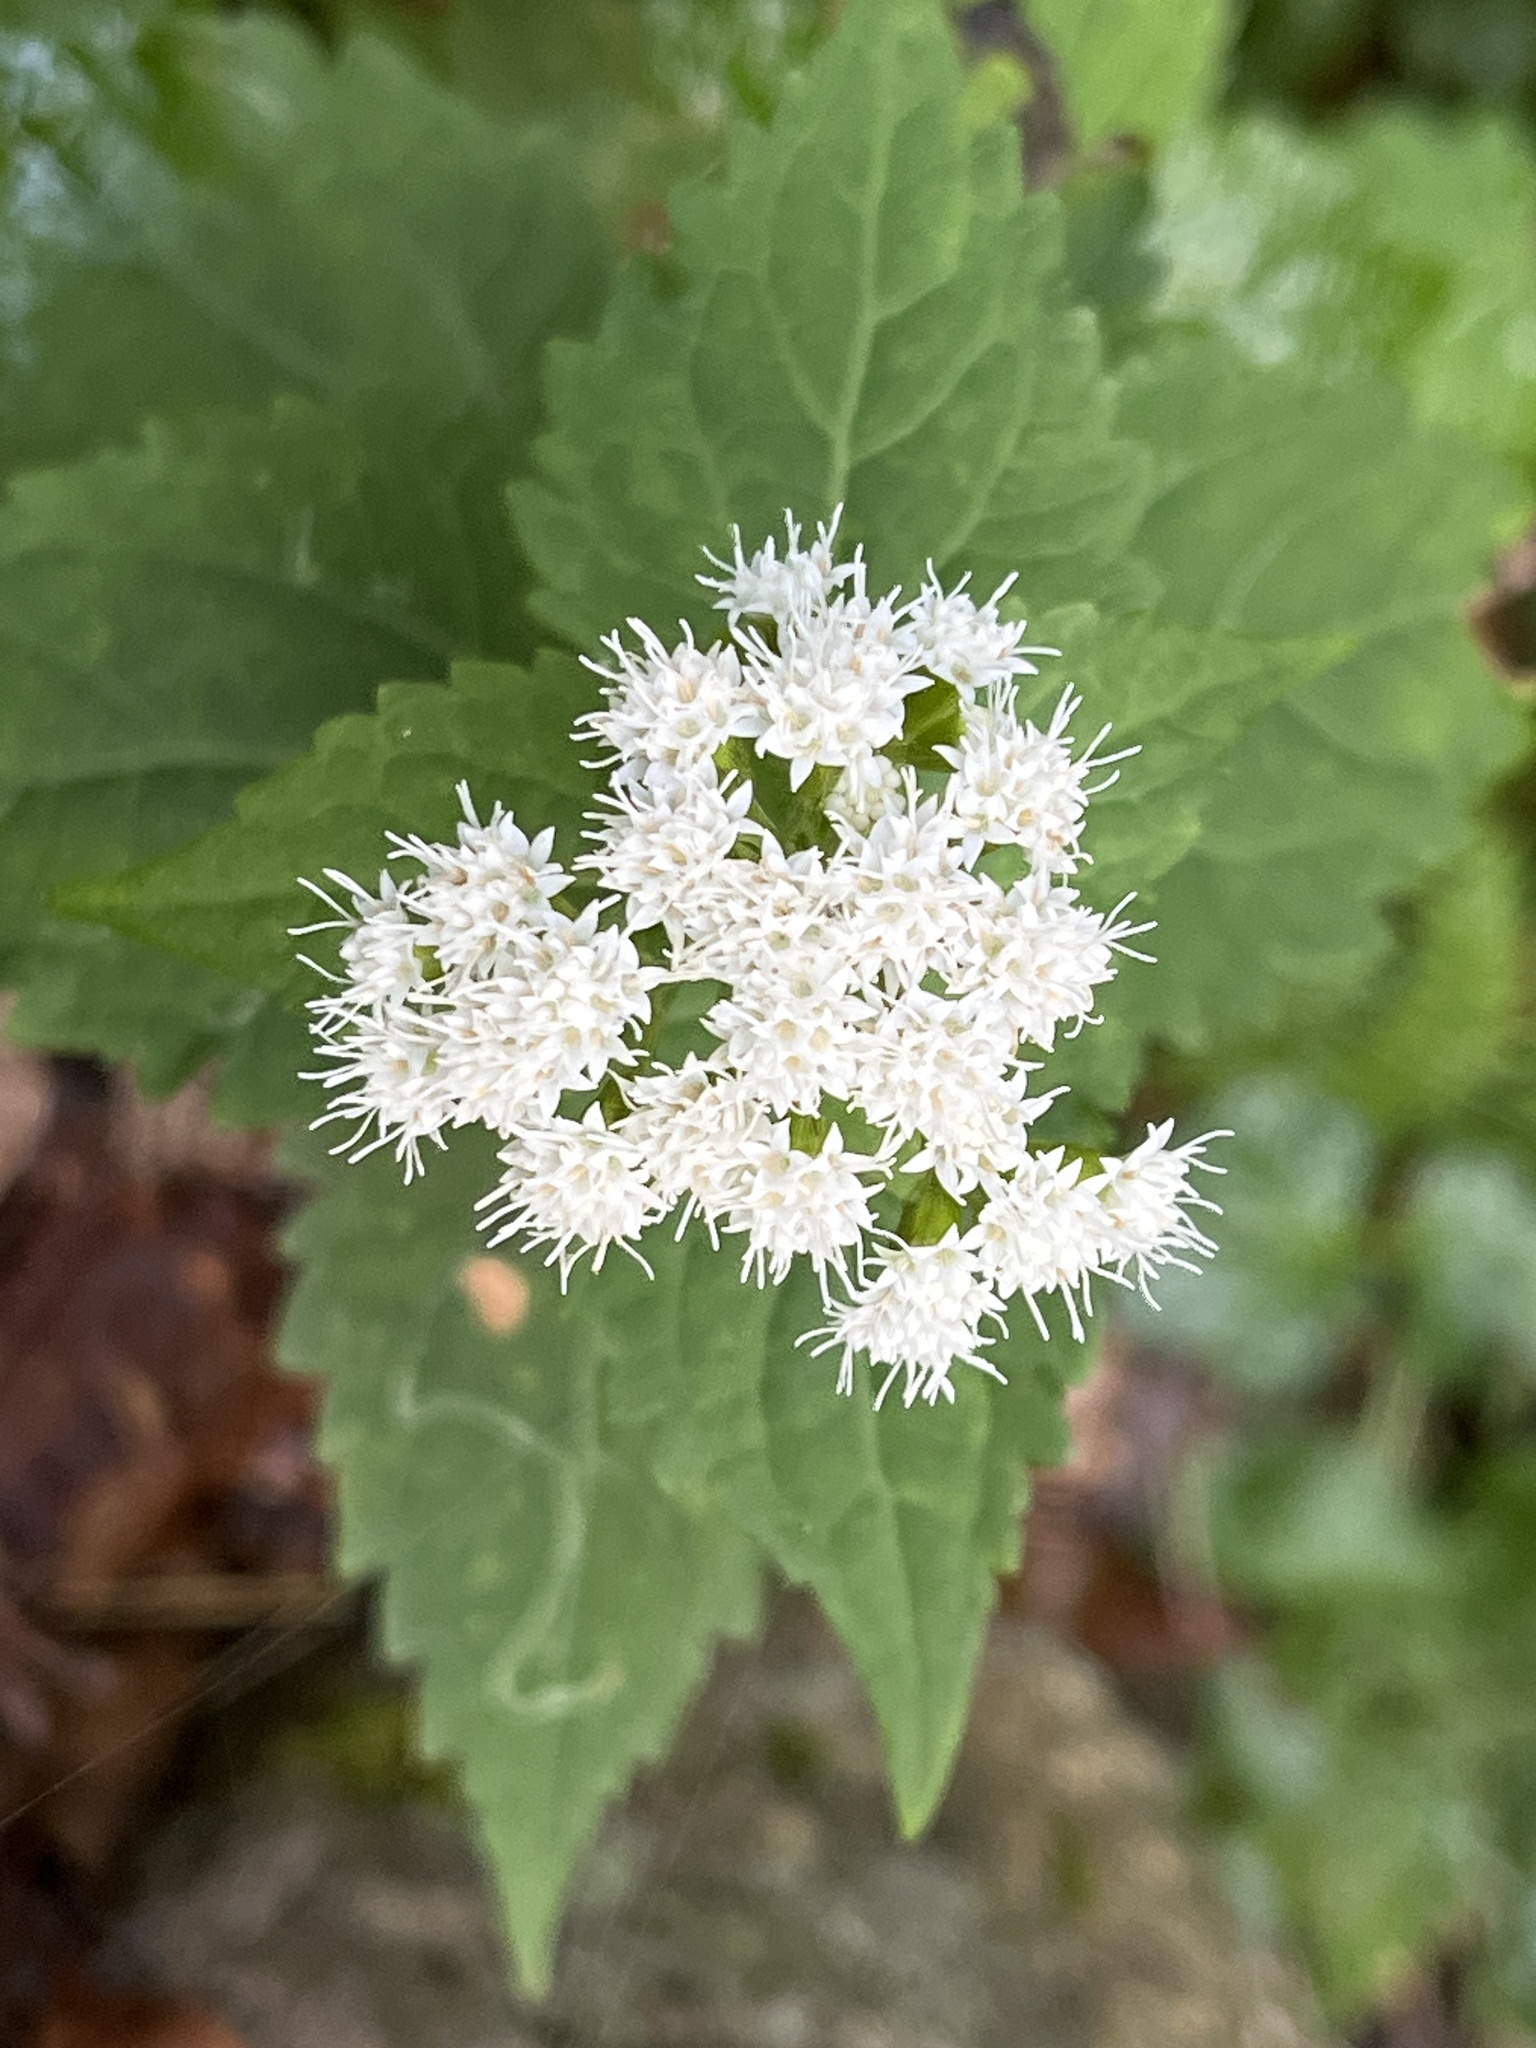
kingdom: Plantae
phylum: Tracheophyta
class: Magnoliopsida
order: Asterales
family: Asteraceae
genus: Ageratina
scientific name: Ageratina altissima
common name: White snakeroot
